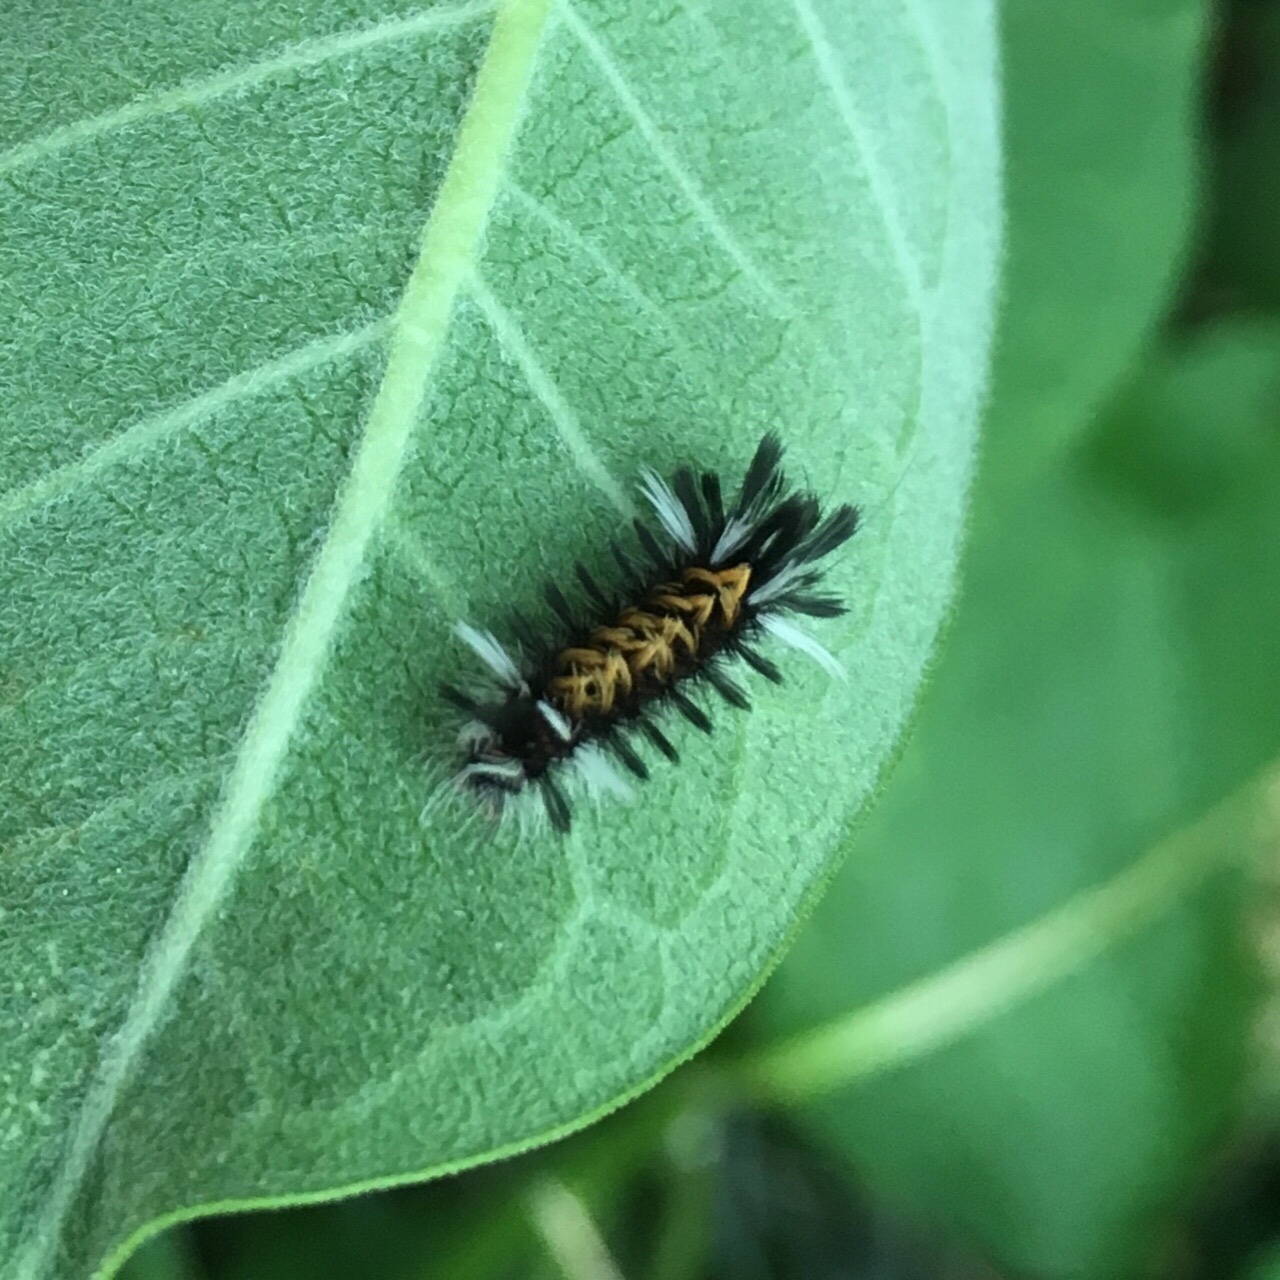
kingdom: Animalia
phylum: Arthropoda
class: Insecta
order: Lepidoptera
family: Erebidae
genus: Euchaetes
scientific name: Euchaetes egle
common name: Milkweed tussock moth
